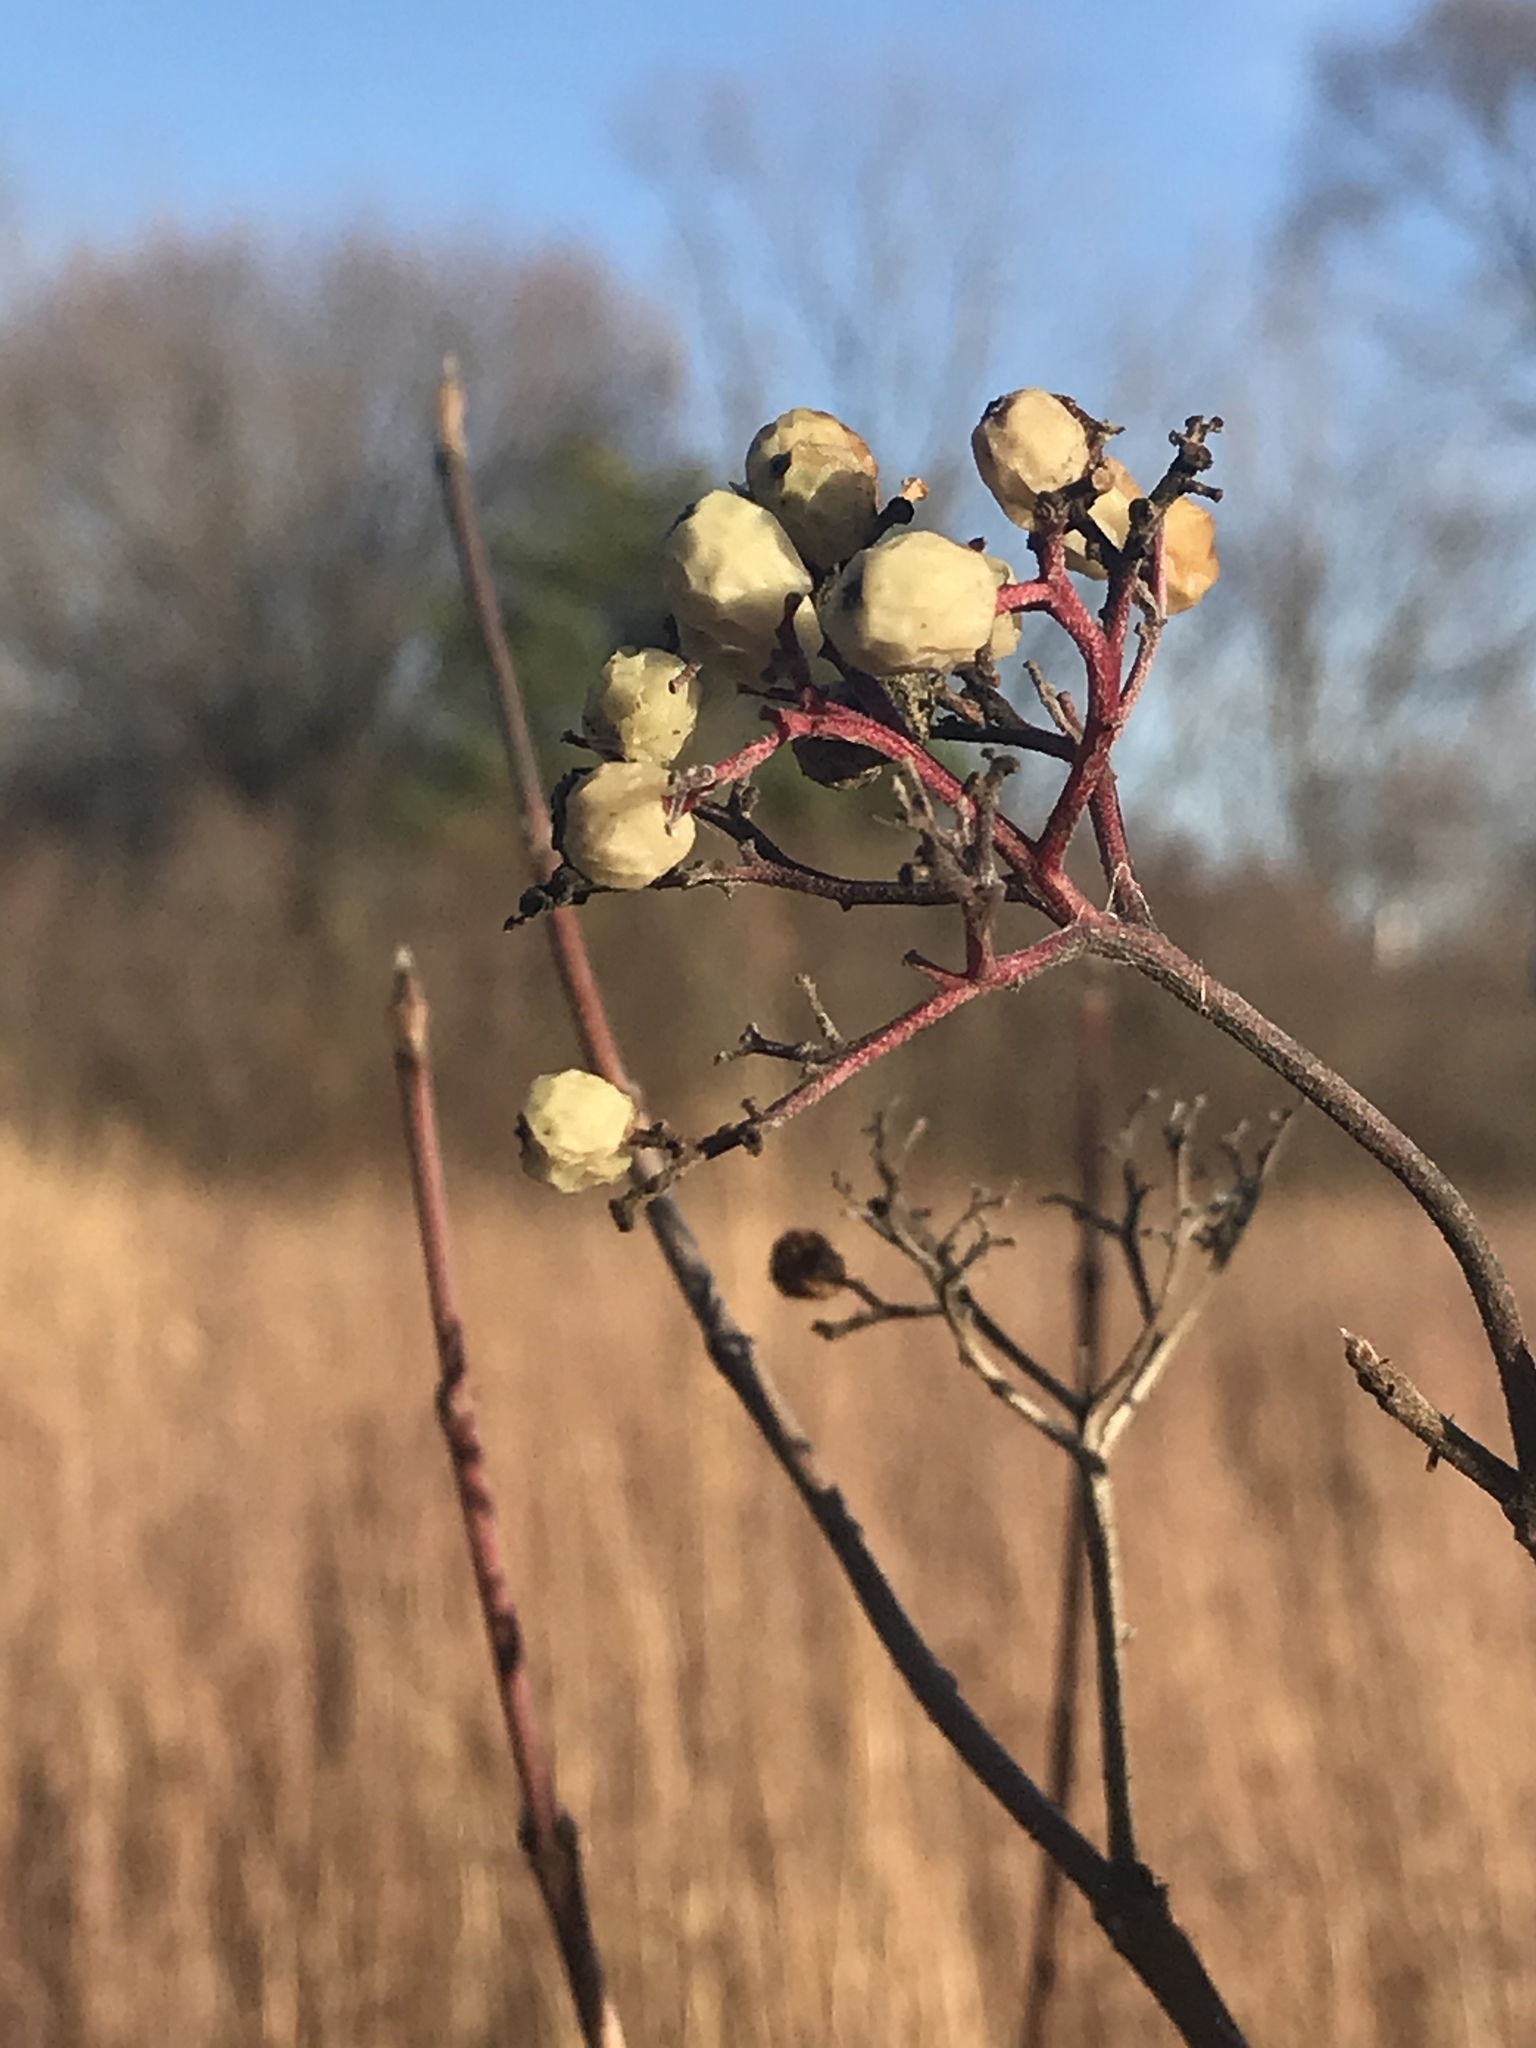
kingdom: Plantae
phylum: Tracheophyta
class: Magnoliopsida
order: Cornales
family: Cornaceae
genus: Cornus
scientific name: Cornus racemosa
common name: Panicled dogwood
